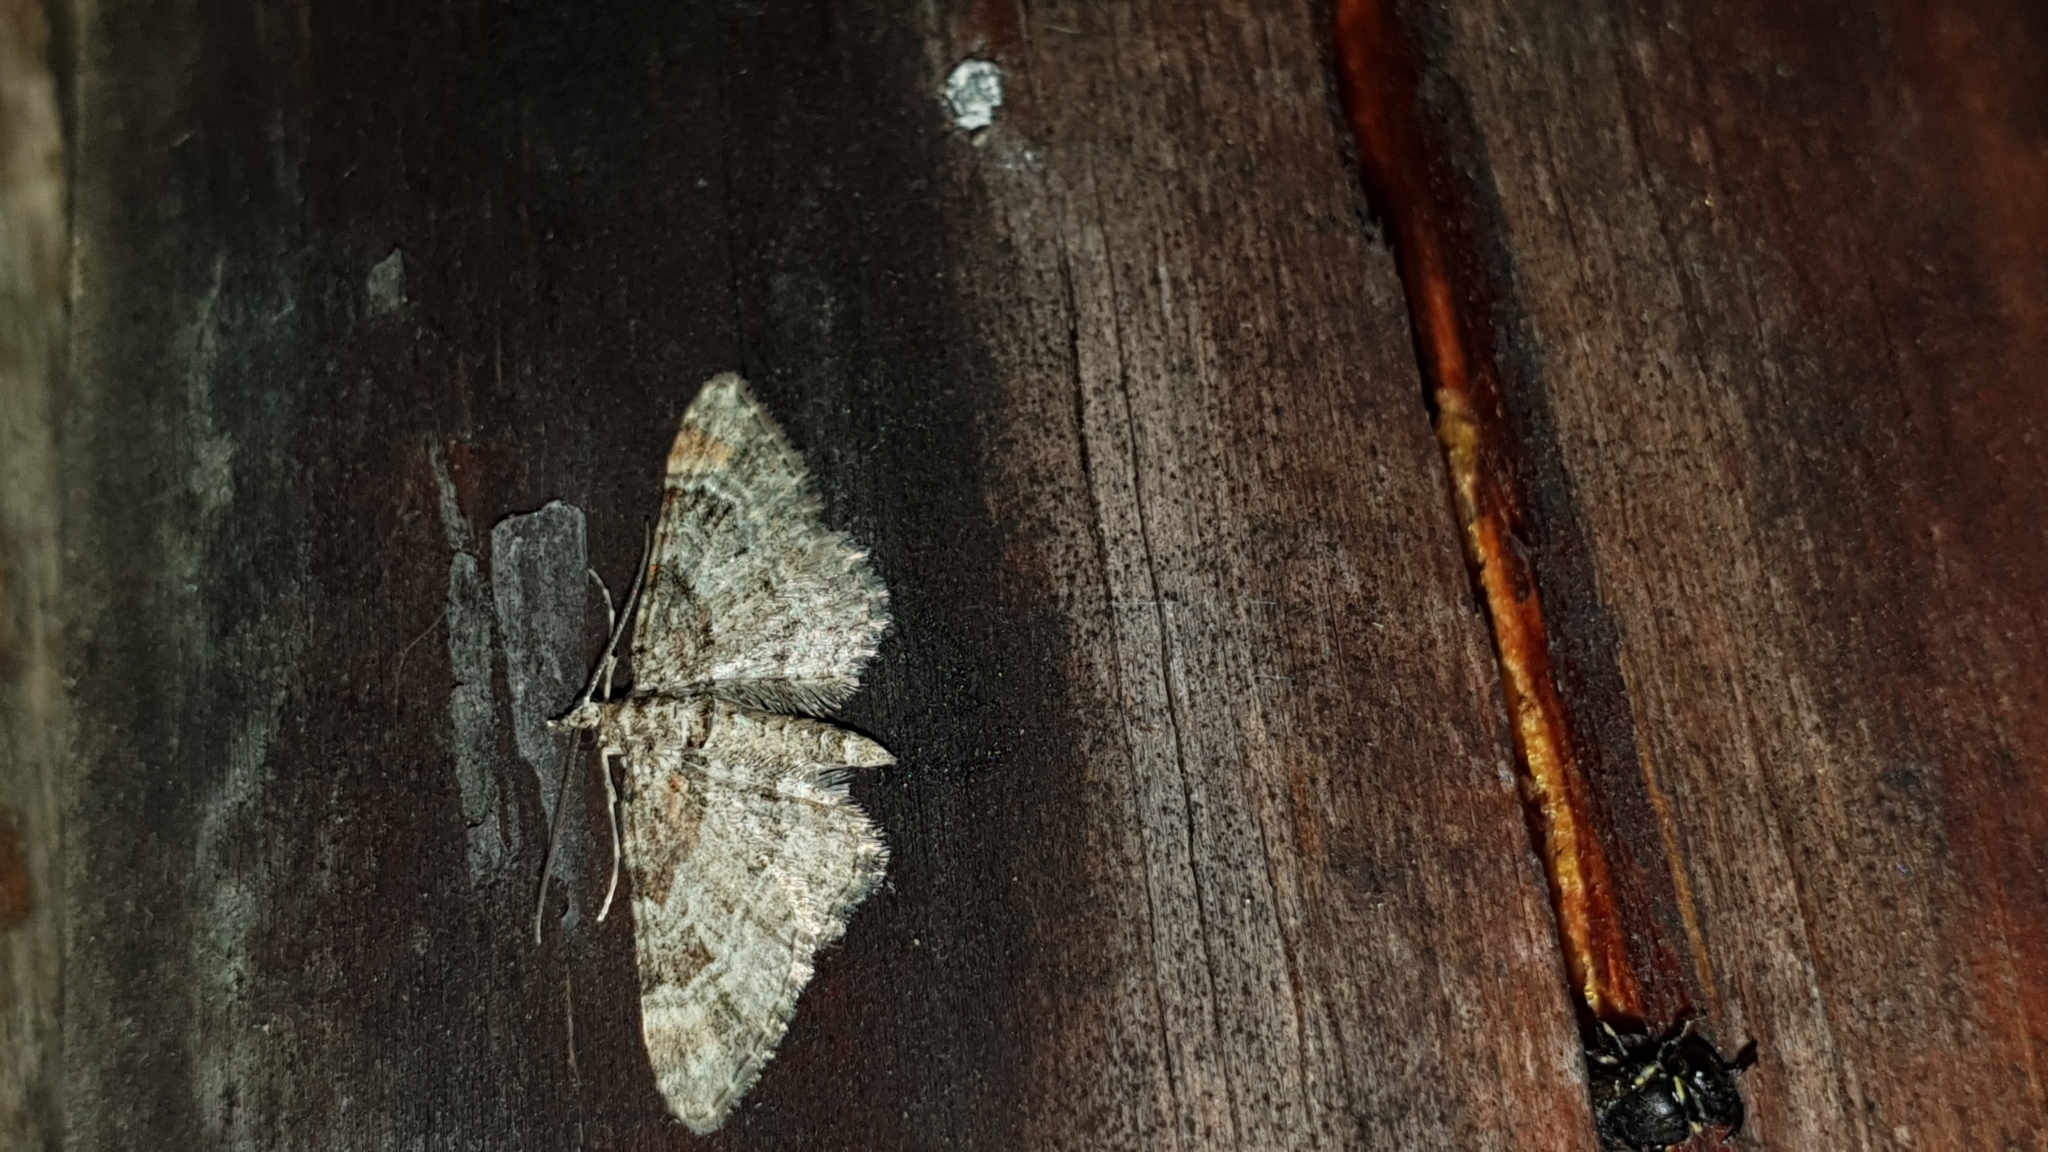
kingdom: Animalia
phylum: Arthropoda
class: Insecta
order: Lepidoptera
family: Geometridae
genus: Gymnoscelis
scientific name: Gymnoscelis rufifasciata
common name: Double-striped pug
